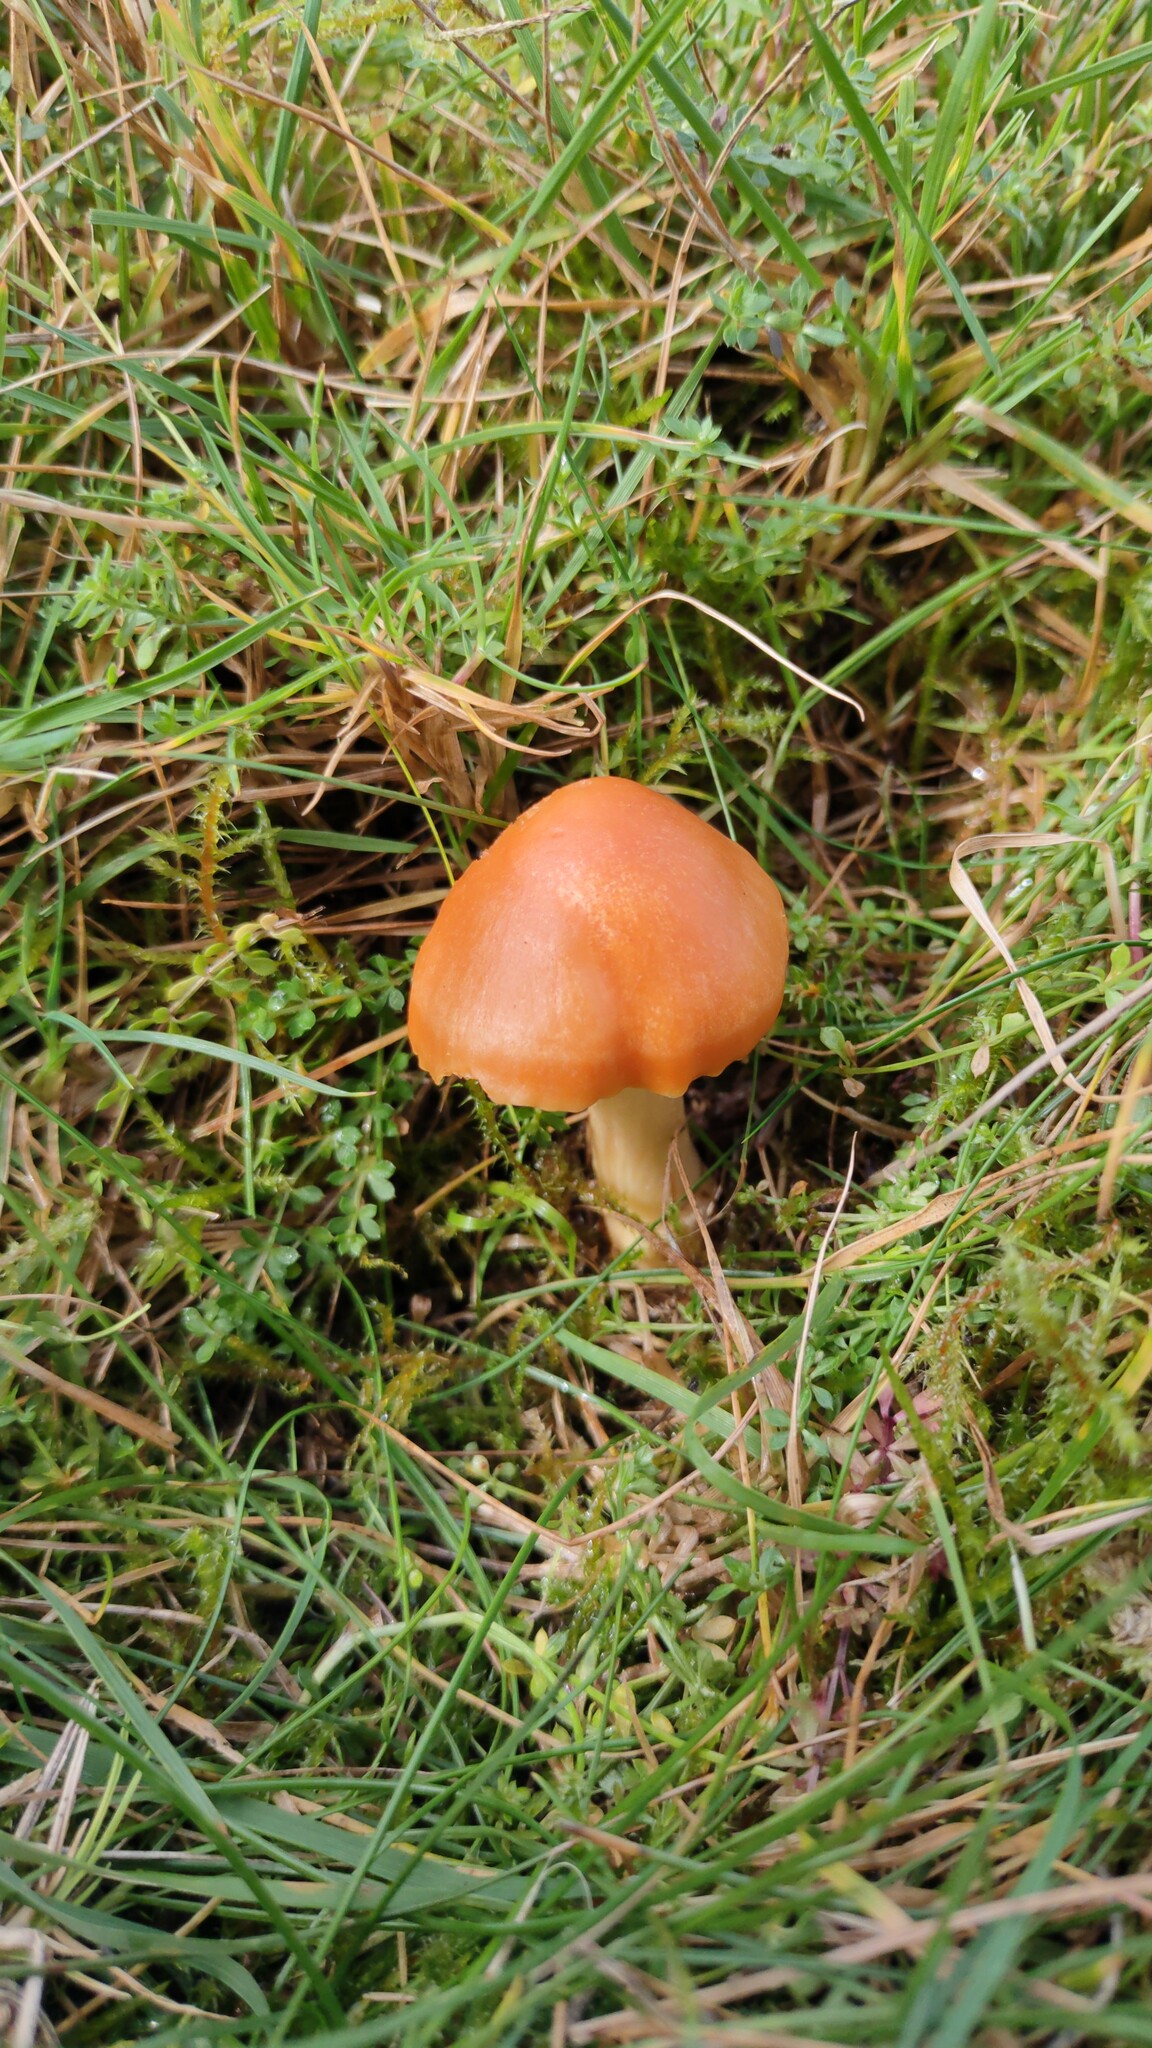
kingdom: Fungi
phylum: Basidiomycota
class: Agaricomycetes
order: Agaricales
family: Hygrophoraceae
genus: Cuphophyllus
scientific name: Cuphophyllus pratensis
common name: Meadow waxcap
